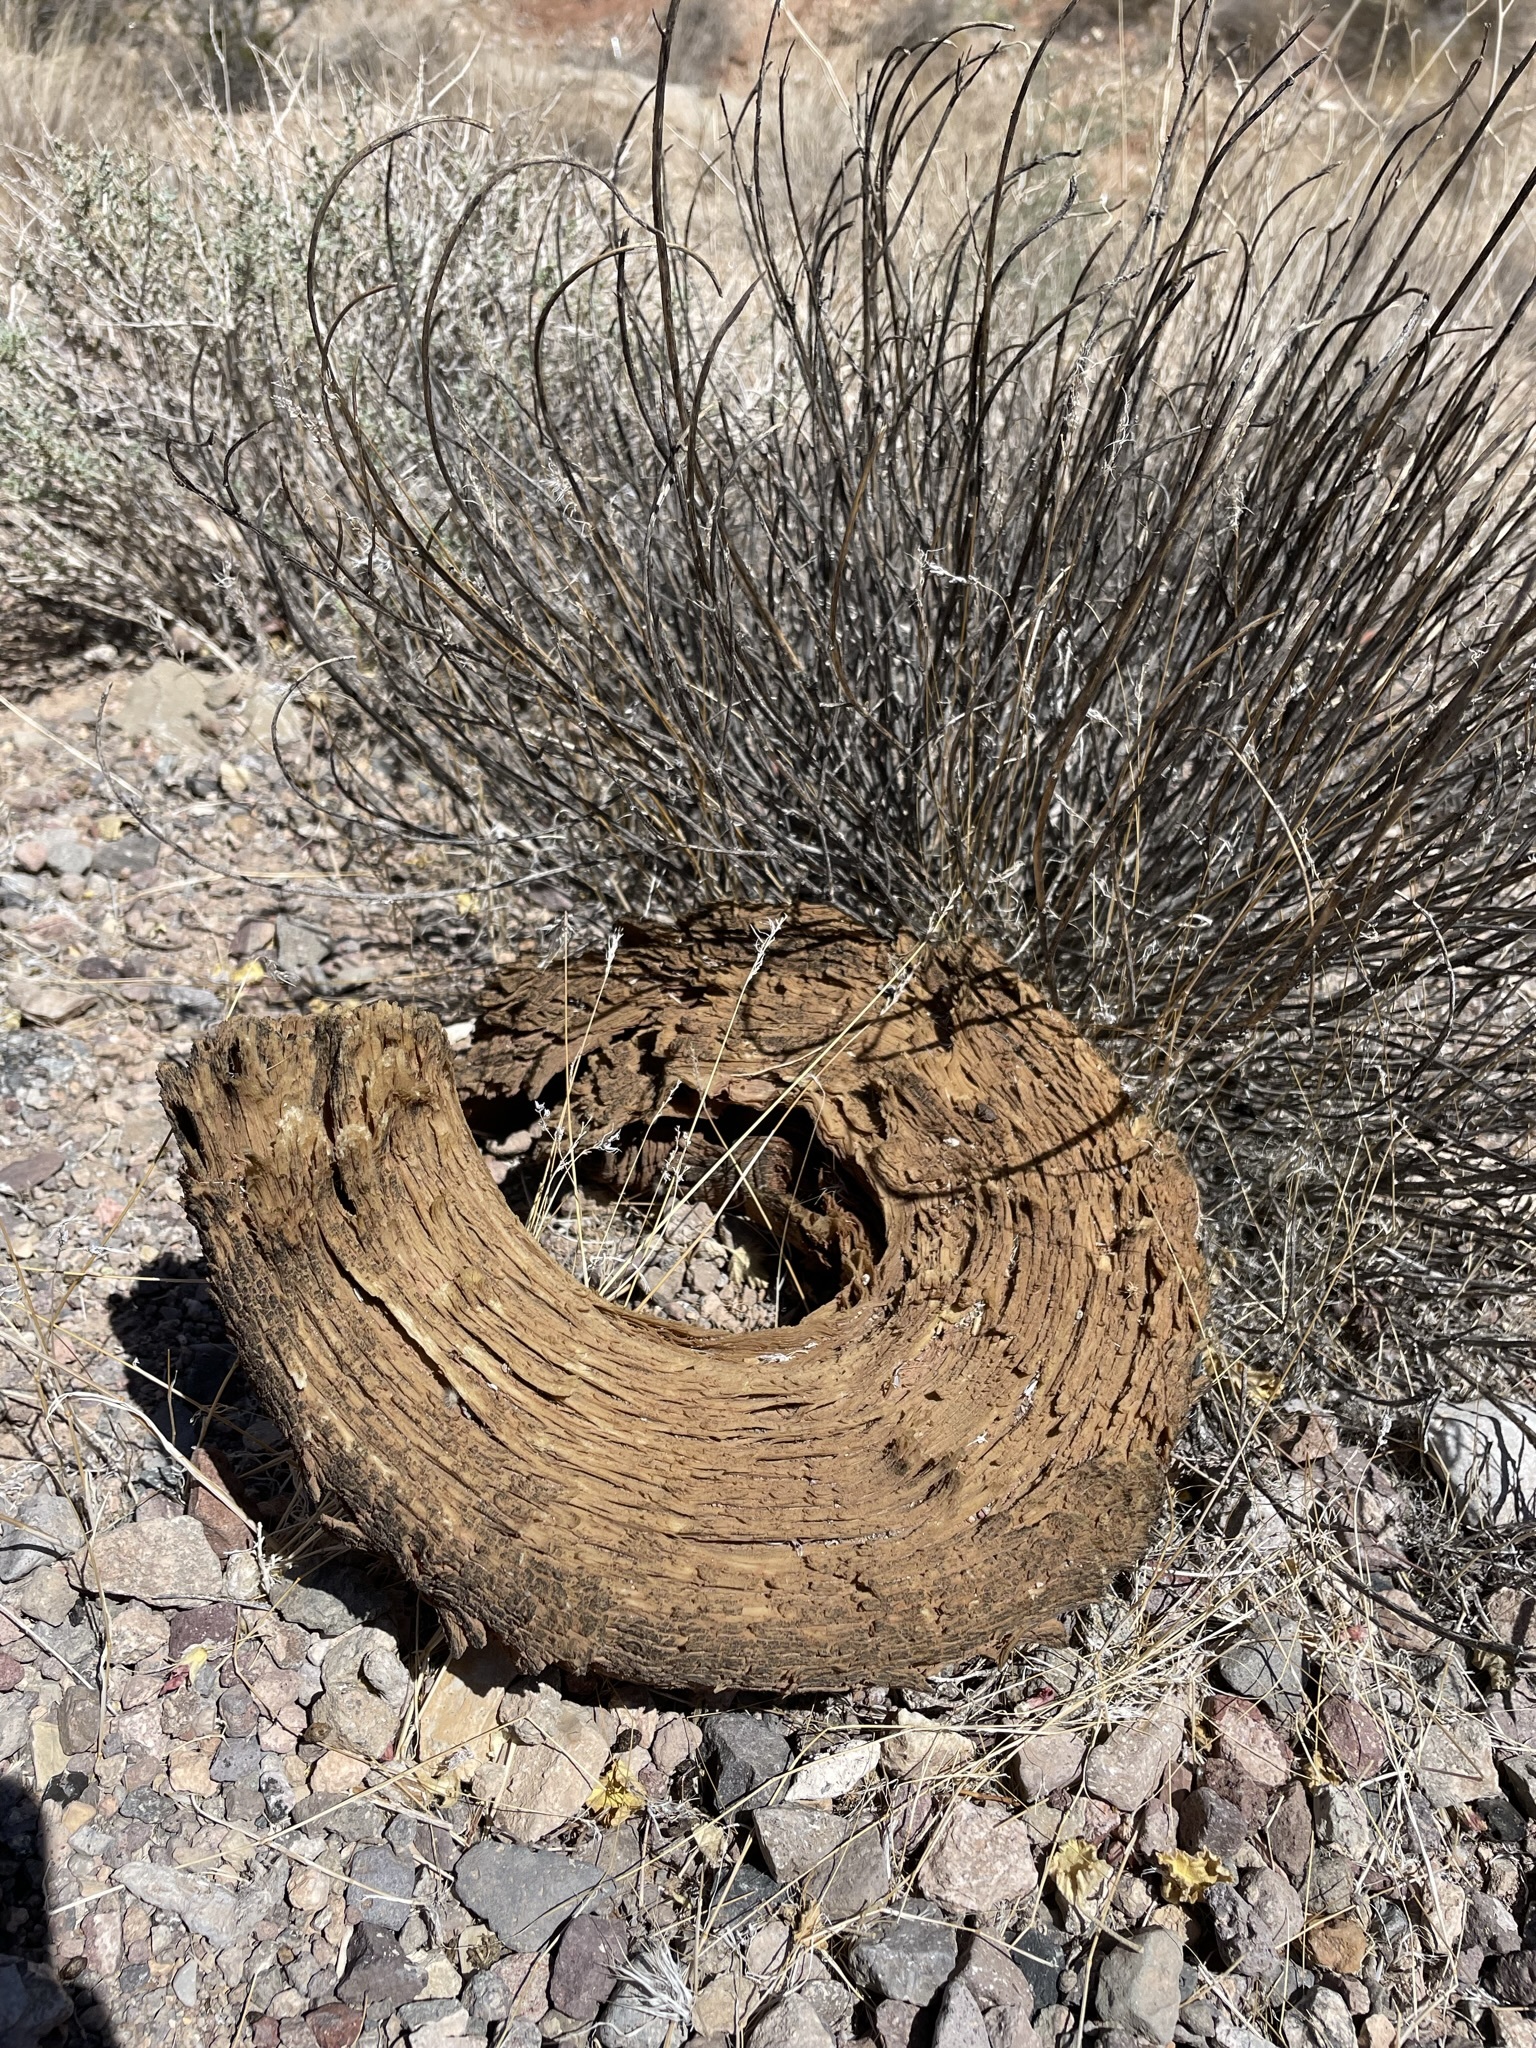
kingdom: Animalia
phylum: Chordata
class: Mammalia
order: Artiodactyla
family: Bovidae
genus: Ovis
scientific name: Ovis canadensis
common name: Bighorn sheep
